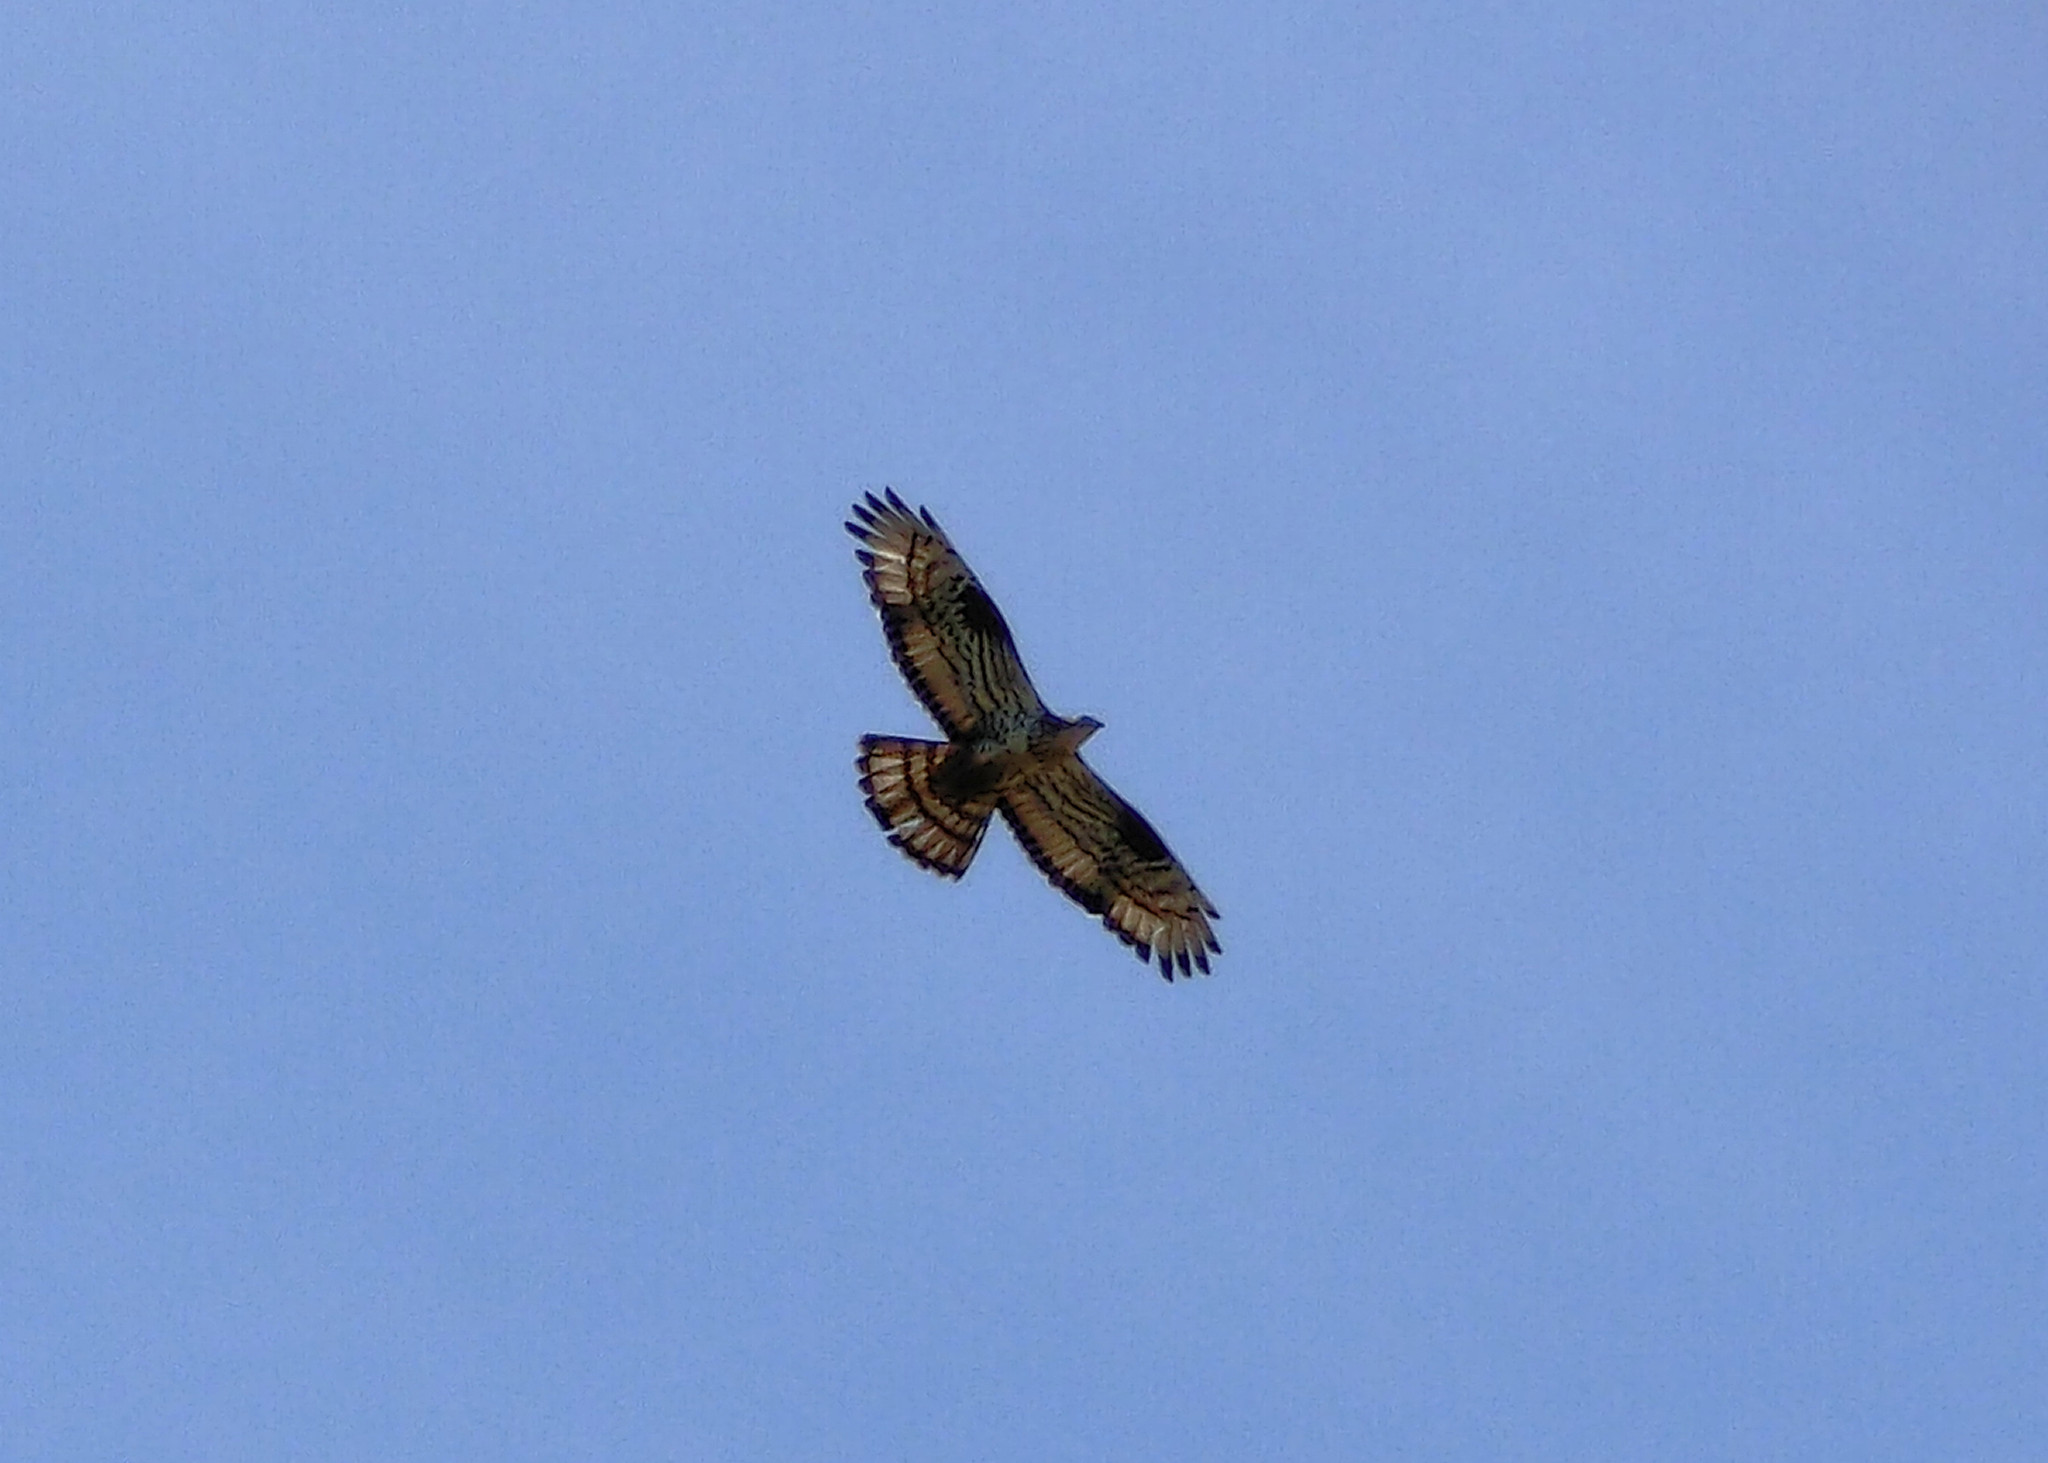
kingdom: Animalia
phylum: Chordata
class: Aves
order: Accipitriformes
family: Accipitridae
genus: Pernis
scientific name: Pernis apivorus
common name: European honey buzzard
